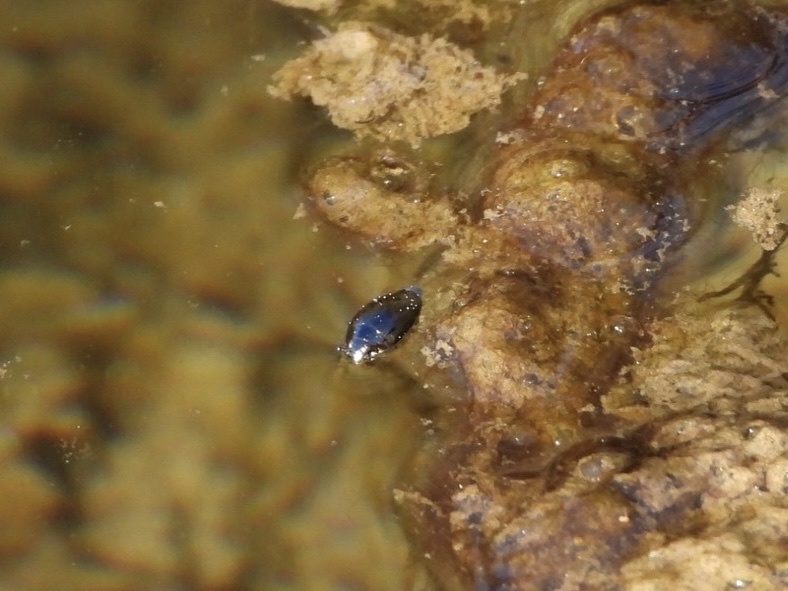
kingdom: Animalia
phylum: Arthropoda
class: Insecta
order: Coleoptera
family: Gyrinidae
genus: Gyrinus
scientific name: Gyrinus
